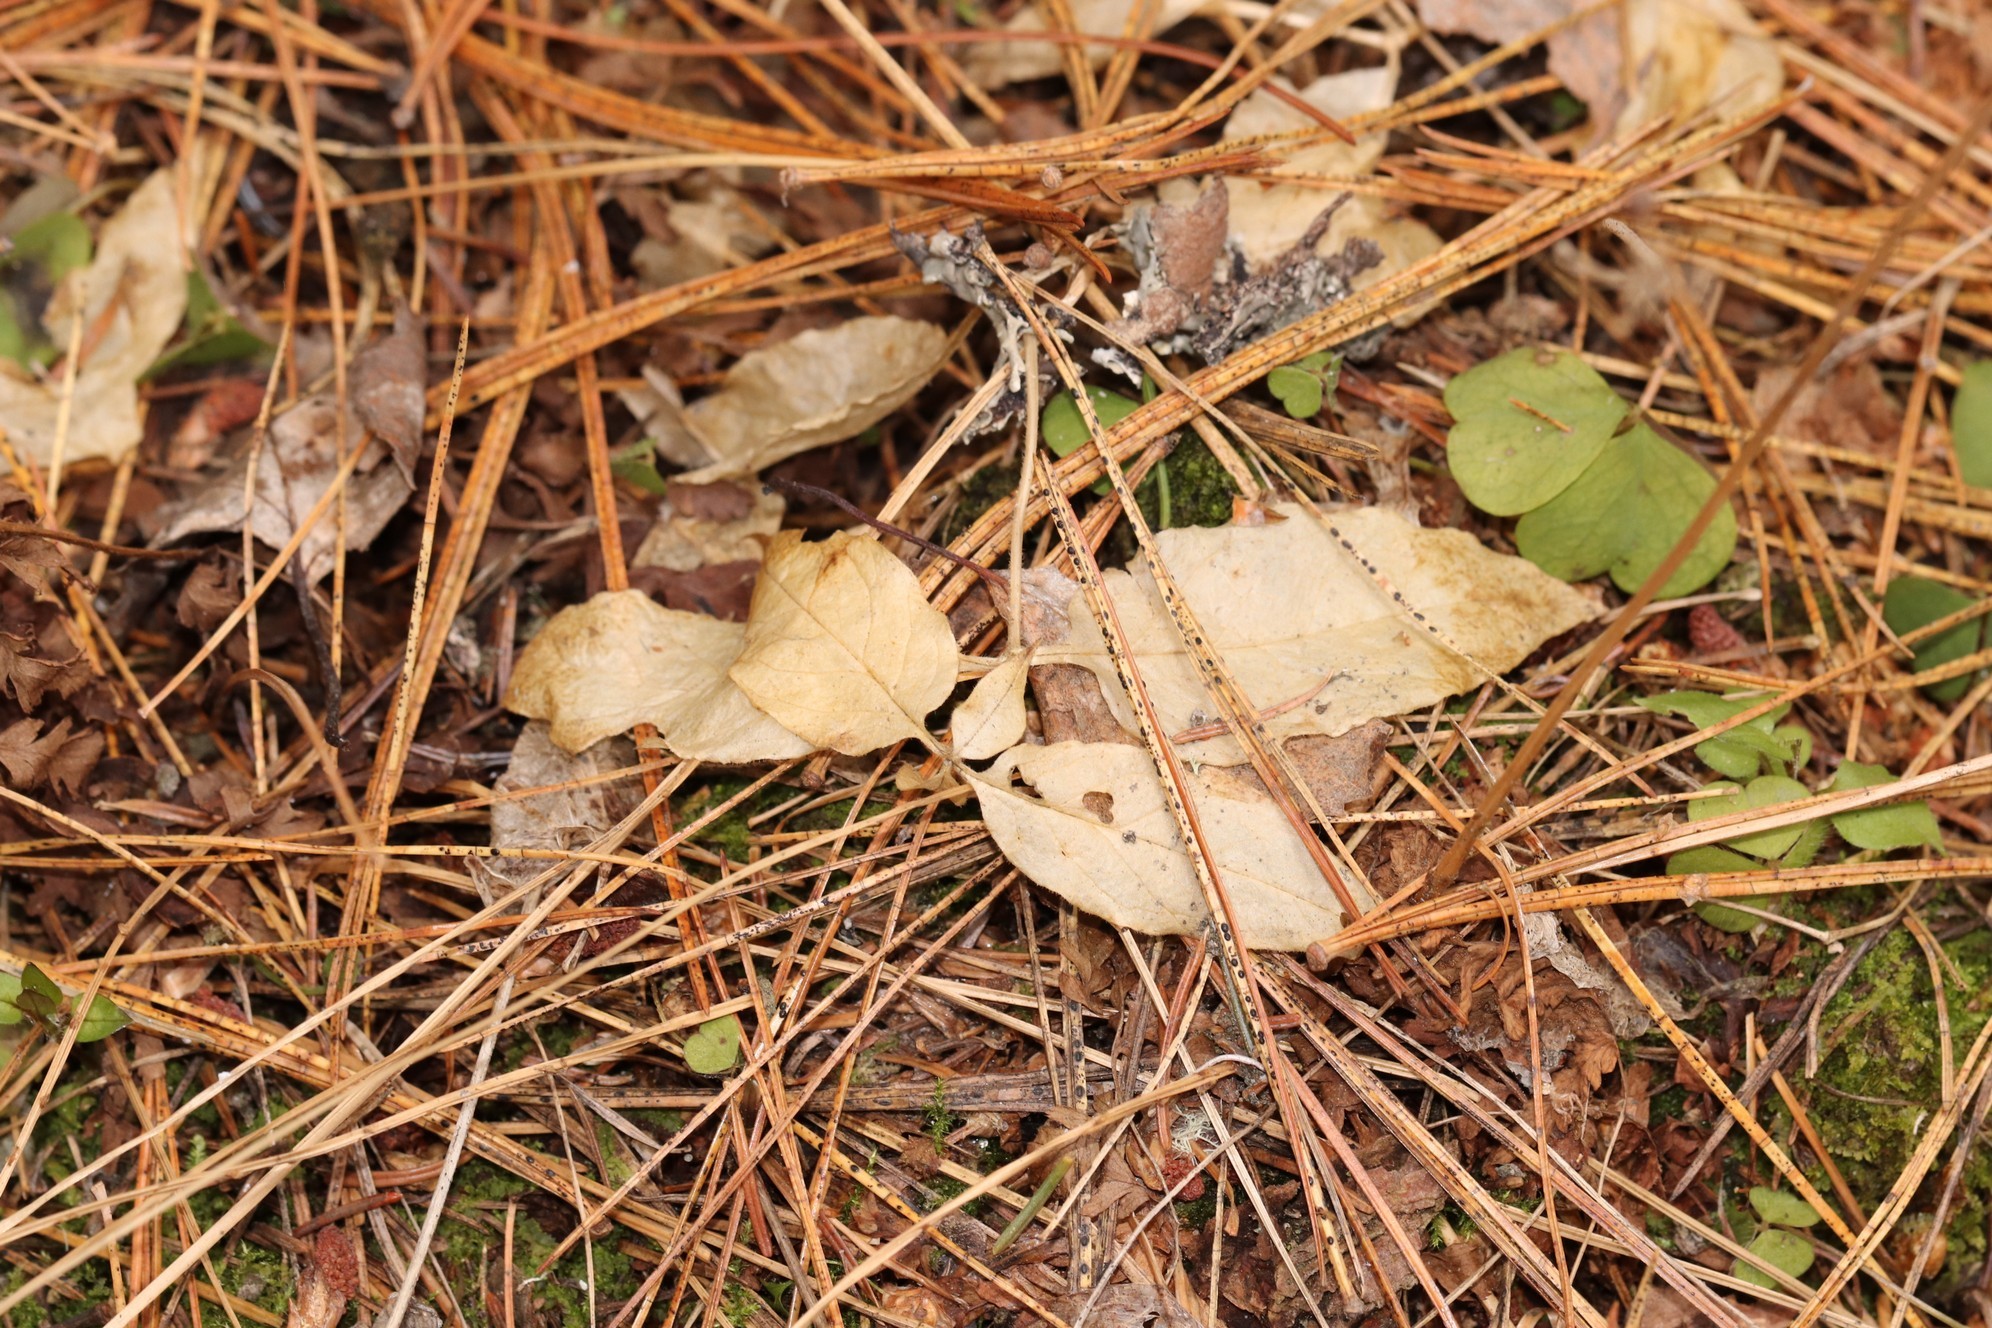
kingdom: Plantae
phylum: Tracheophyta
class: Magnoliopsida
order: Caryophyllales
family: Caryophyllaceae
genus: Stellaria
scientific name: Stellaria bungeana
